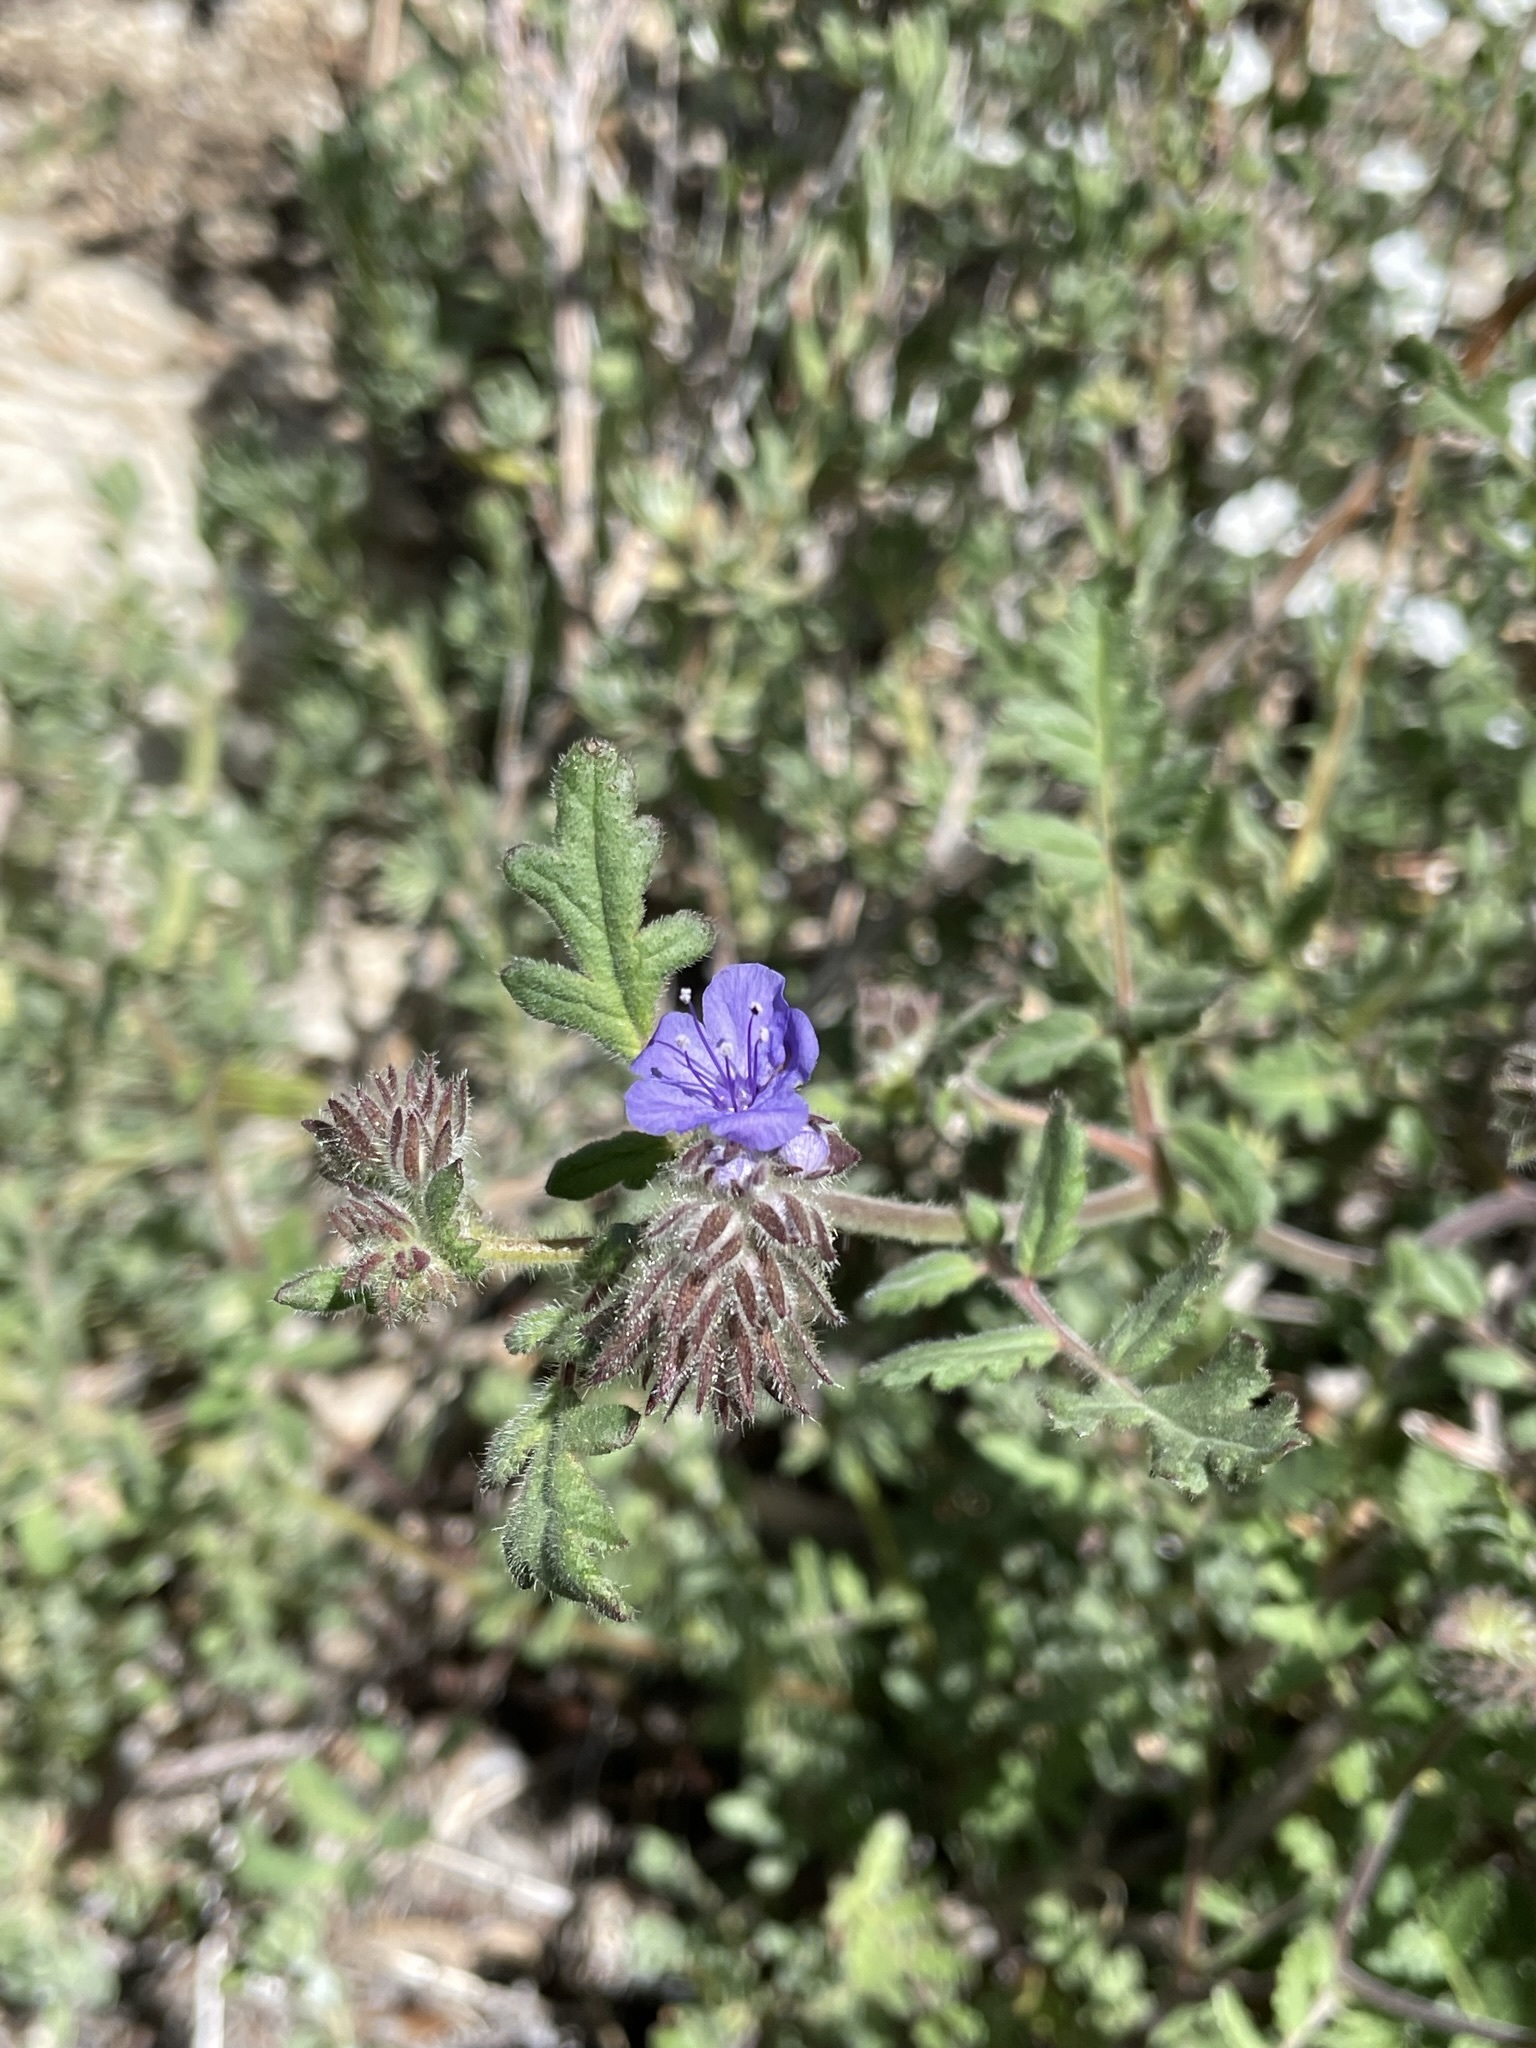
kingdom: Plantae
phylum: Tracheophyta
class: Magnoliopsida
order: Boraginales
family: Hydrophyllaceae
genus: Phacelia
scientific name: Phacelia distans
